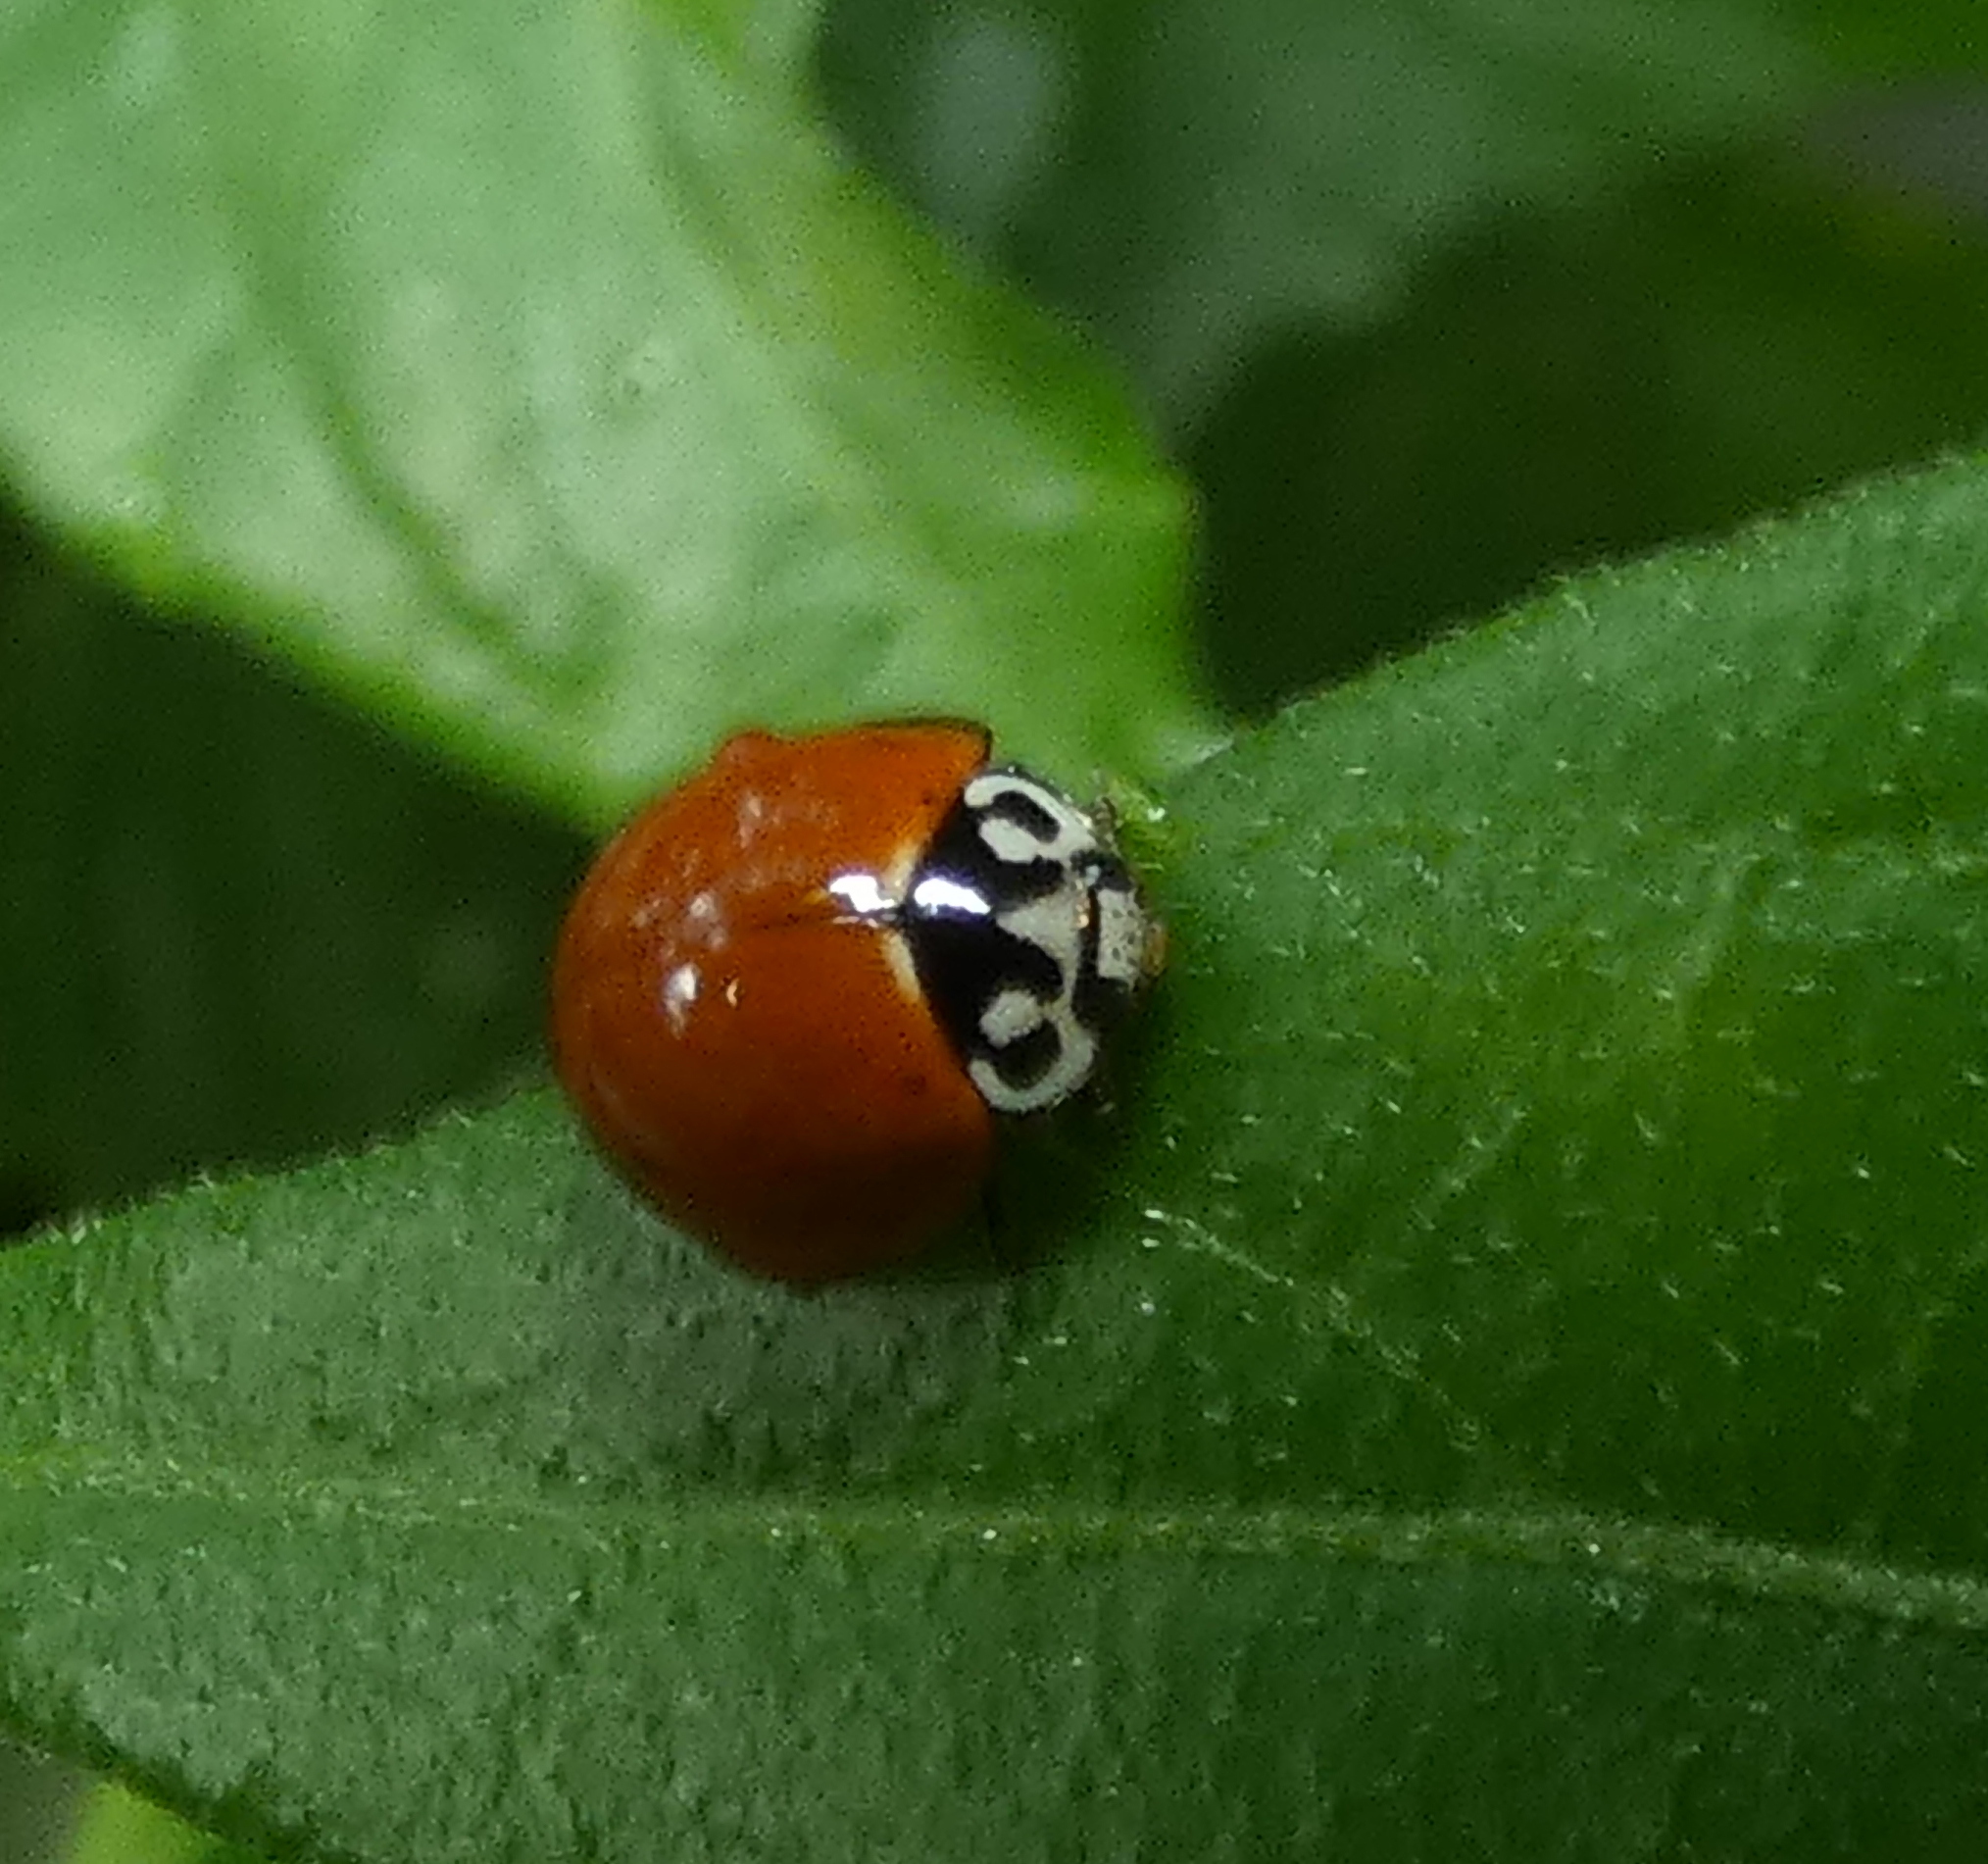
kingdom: Animalia
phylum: Arthropoda
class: Insecta
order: Coleoptera
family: Coccinellidae
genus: Cycloneda
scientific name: Cycloneda sanguinea
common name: Ladybird beetle
